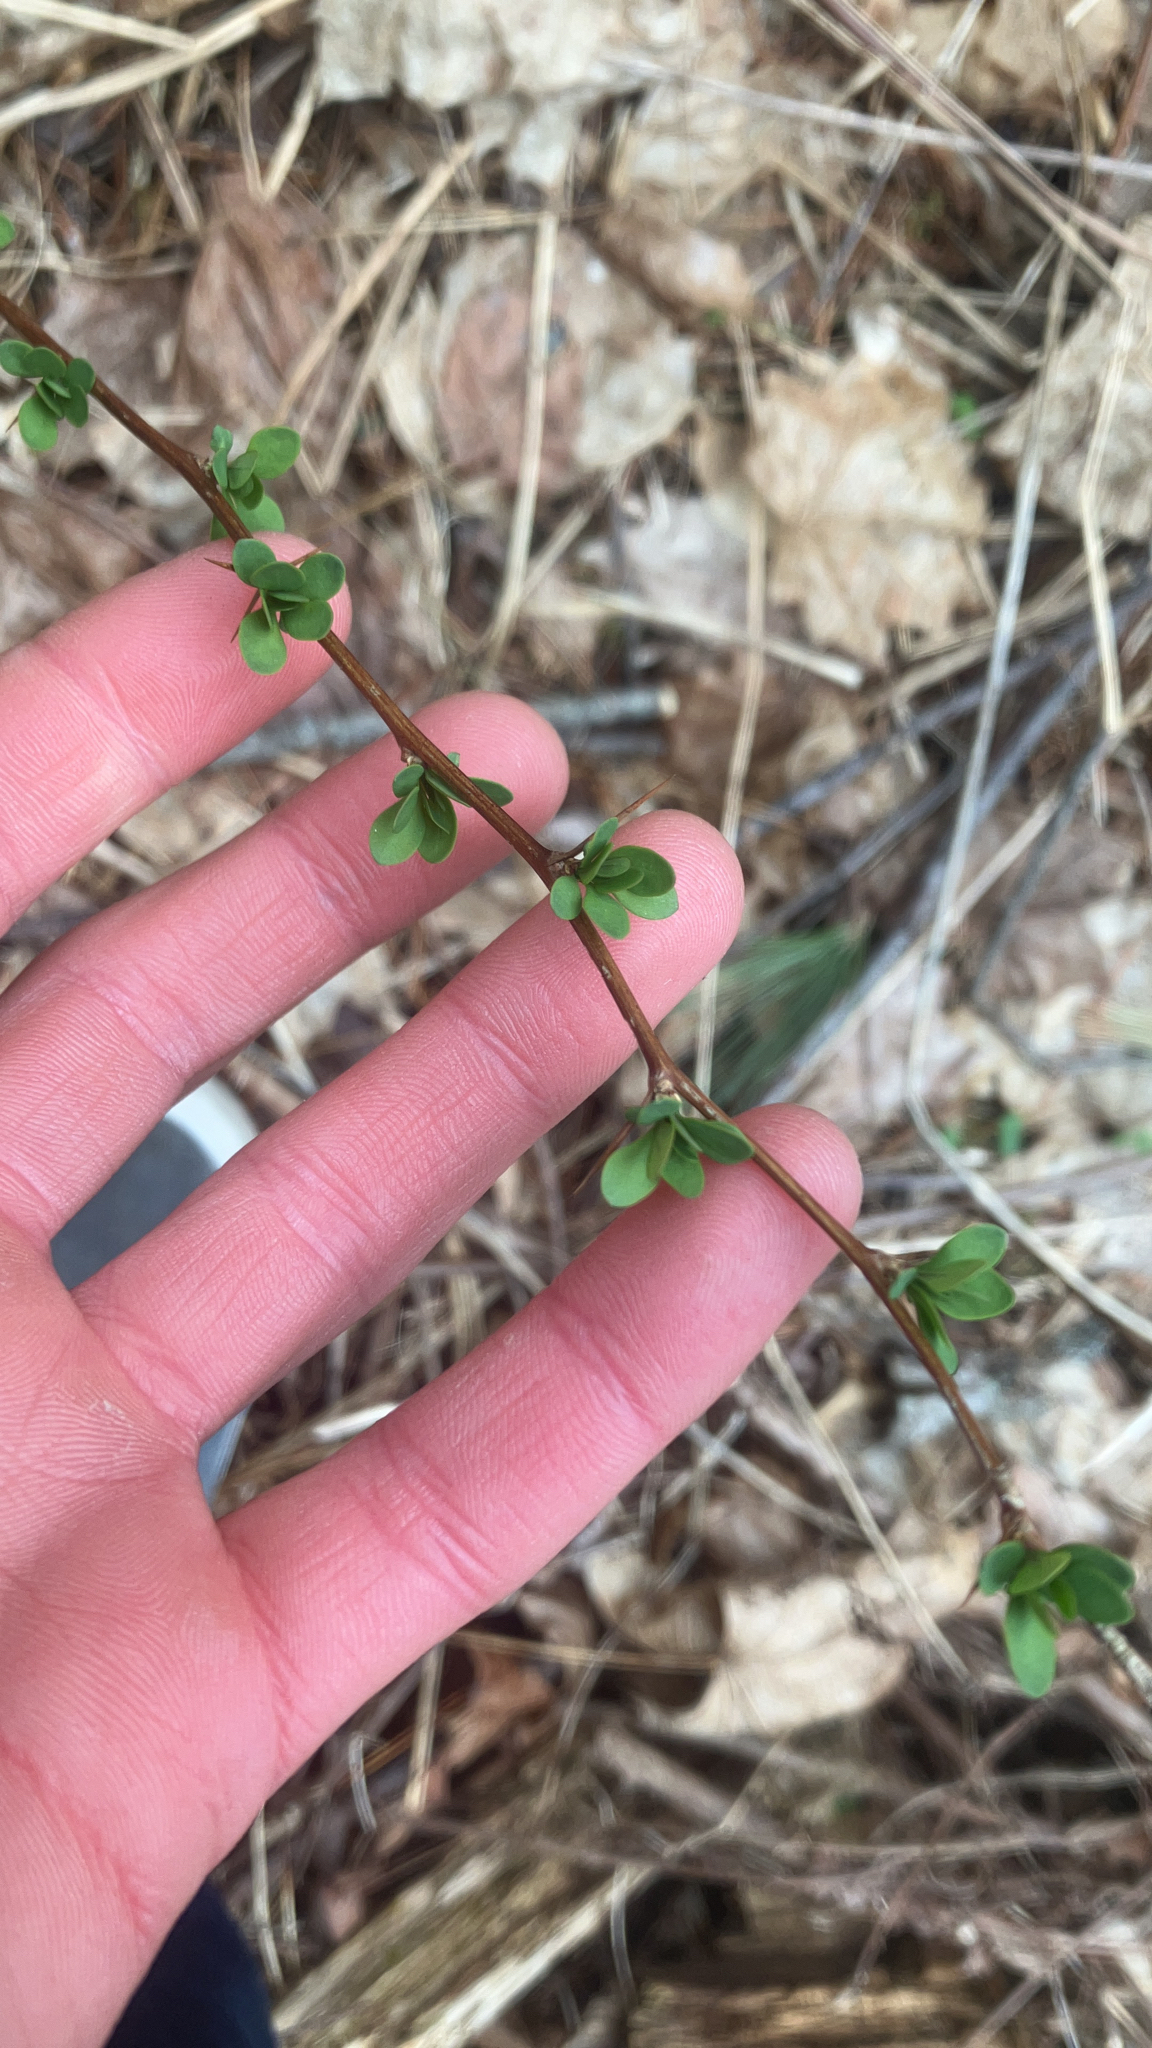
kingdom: Plantae
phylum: Tracheophyta
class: Magnoliopsida
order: Ranunculales
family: Berberidaceae
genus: Berberis
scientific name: Berberis thunbergii
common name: Japanese barberry
